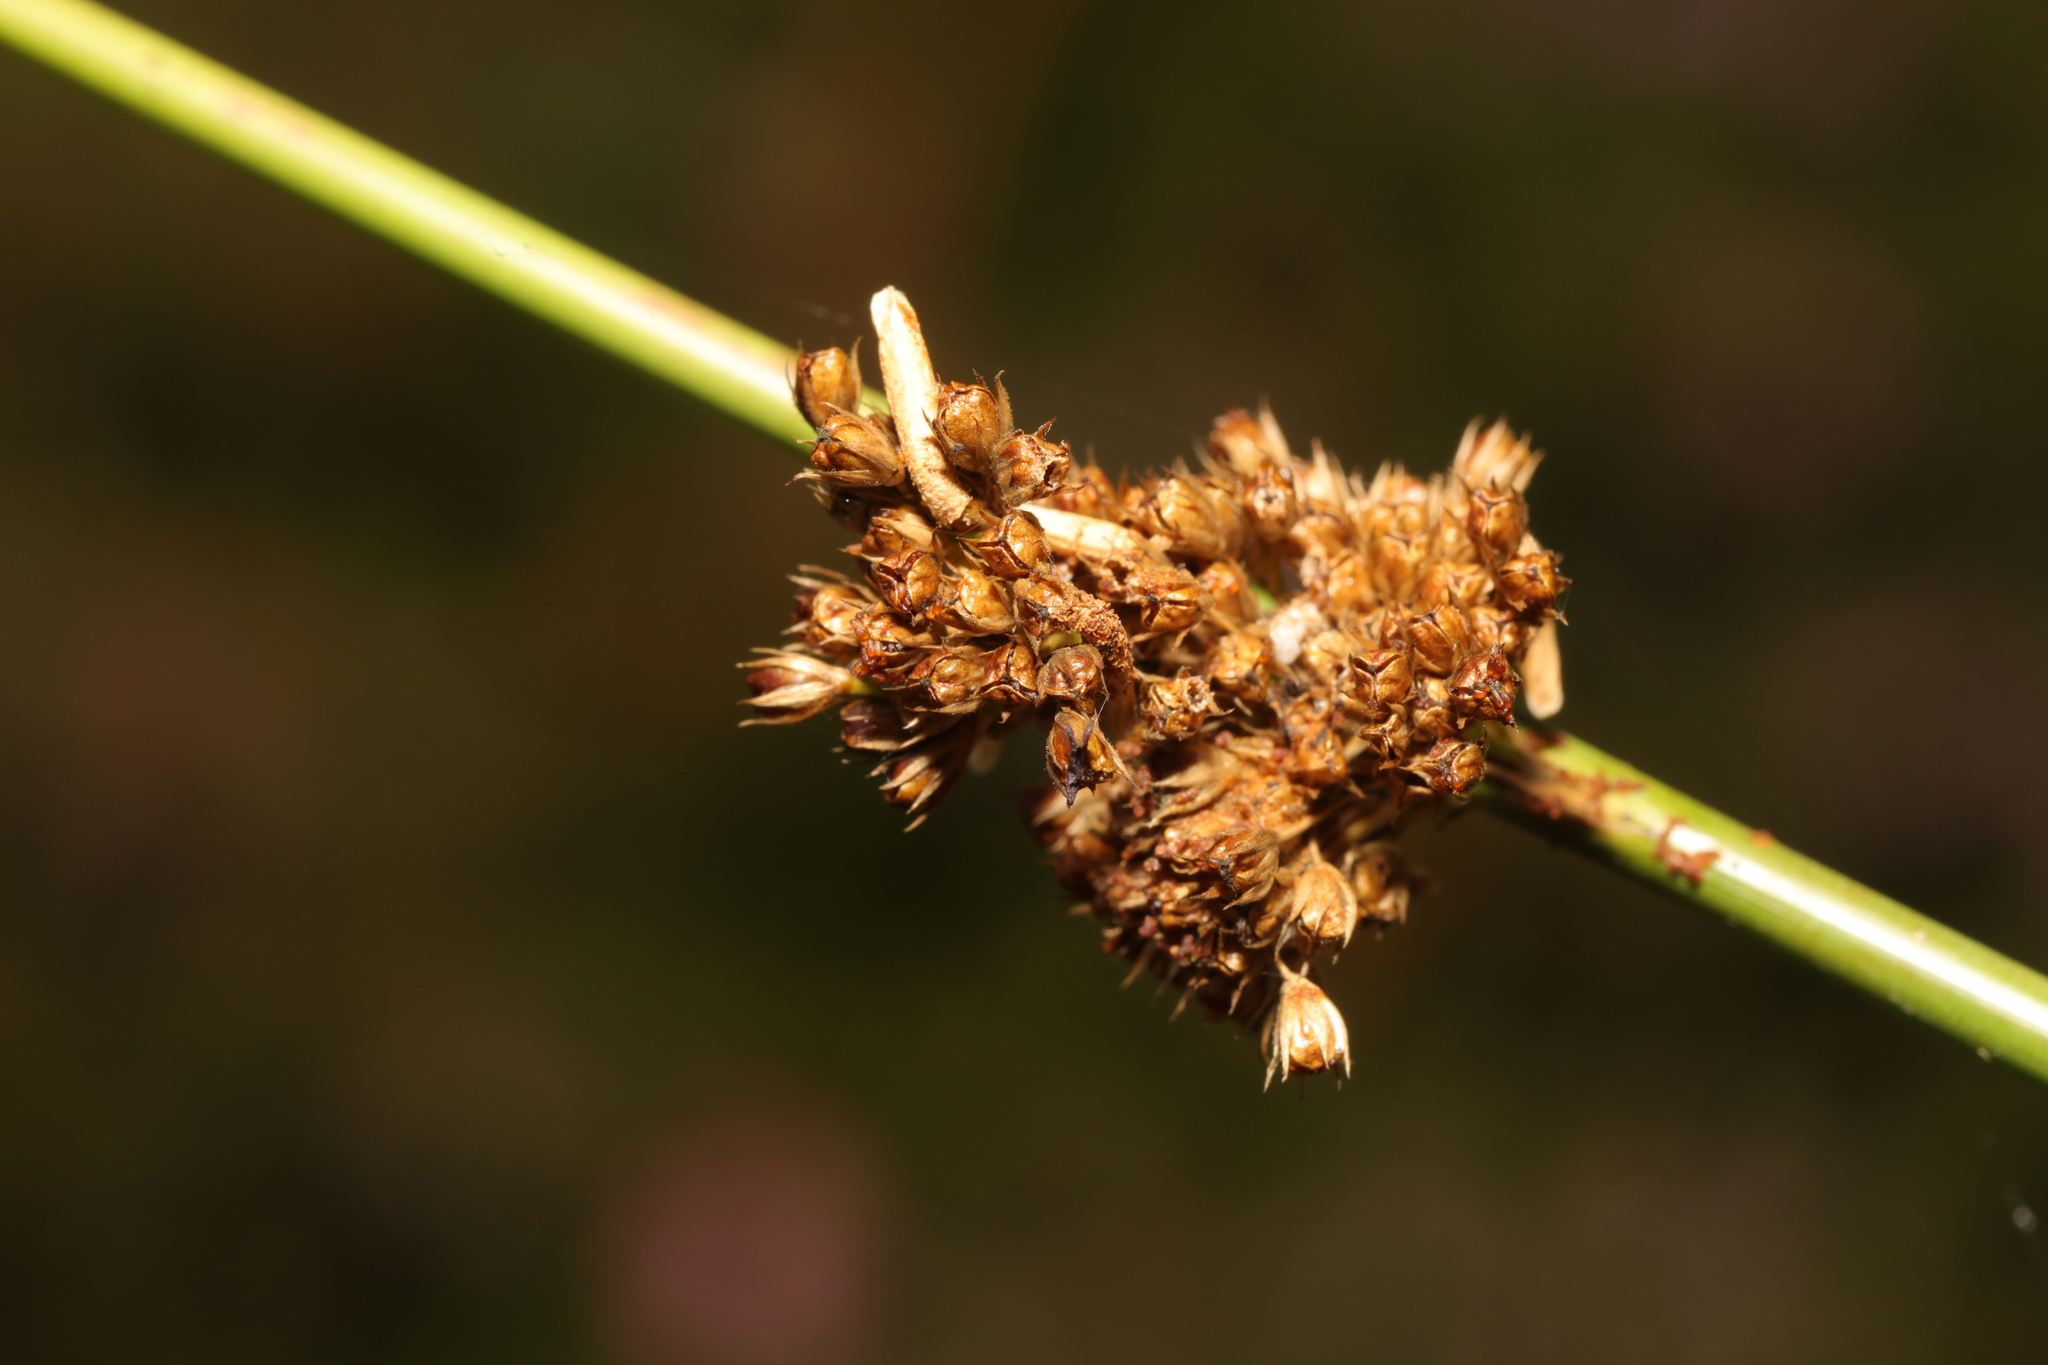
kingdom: Plantae
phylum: Tracheophyta
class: Liliopsida
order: Poales
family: Juncaceae
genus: Juncus
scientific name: Juncus effusus
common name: Soft rush
